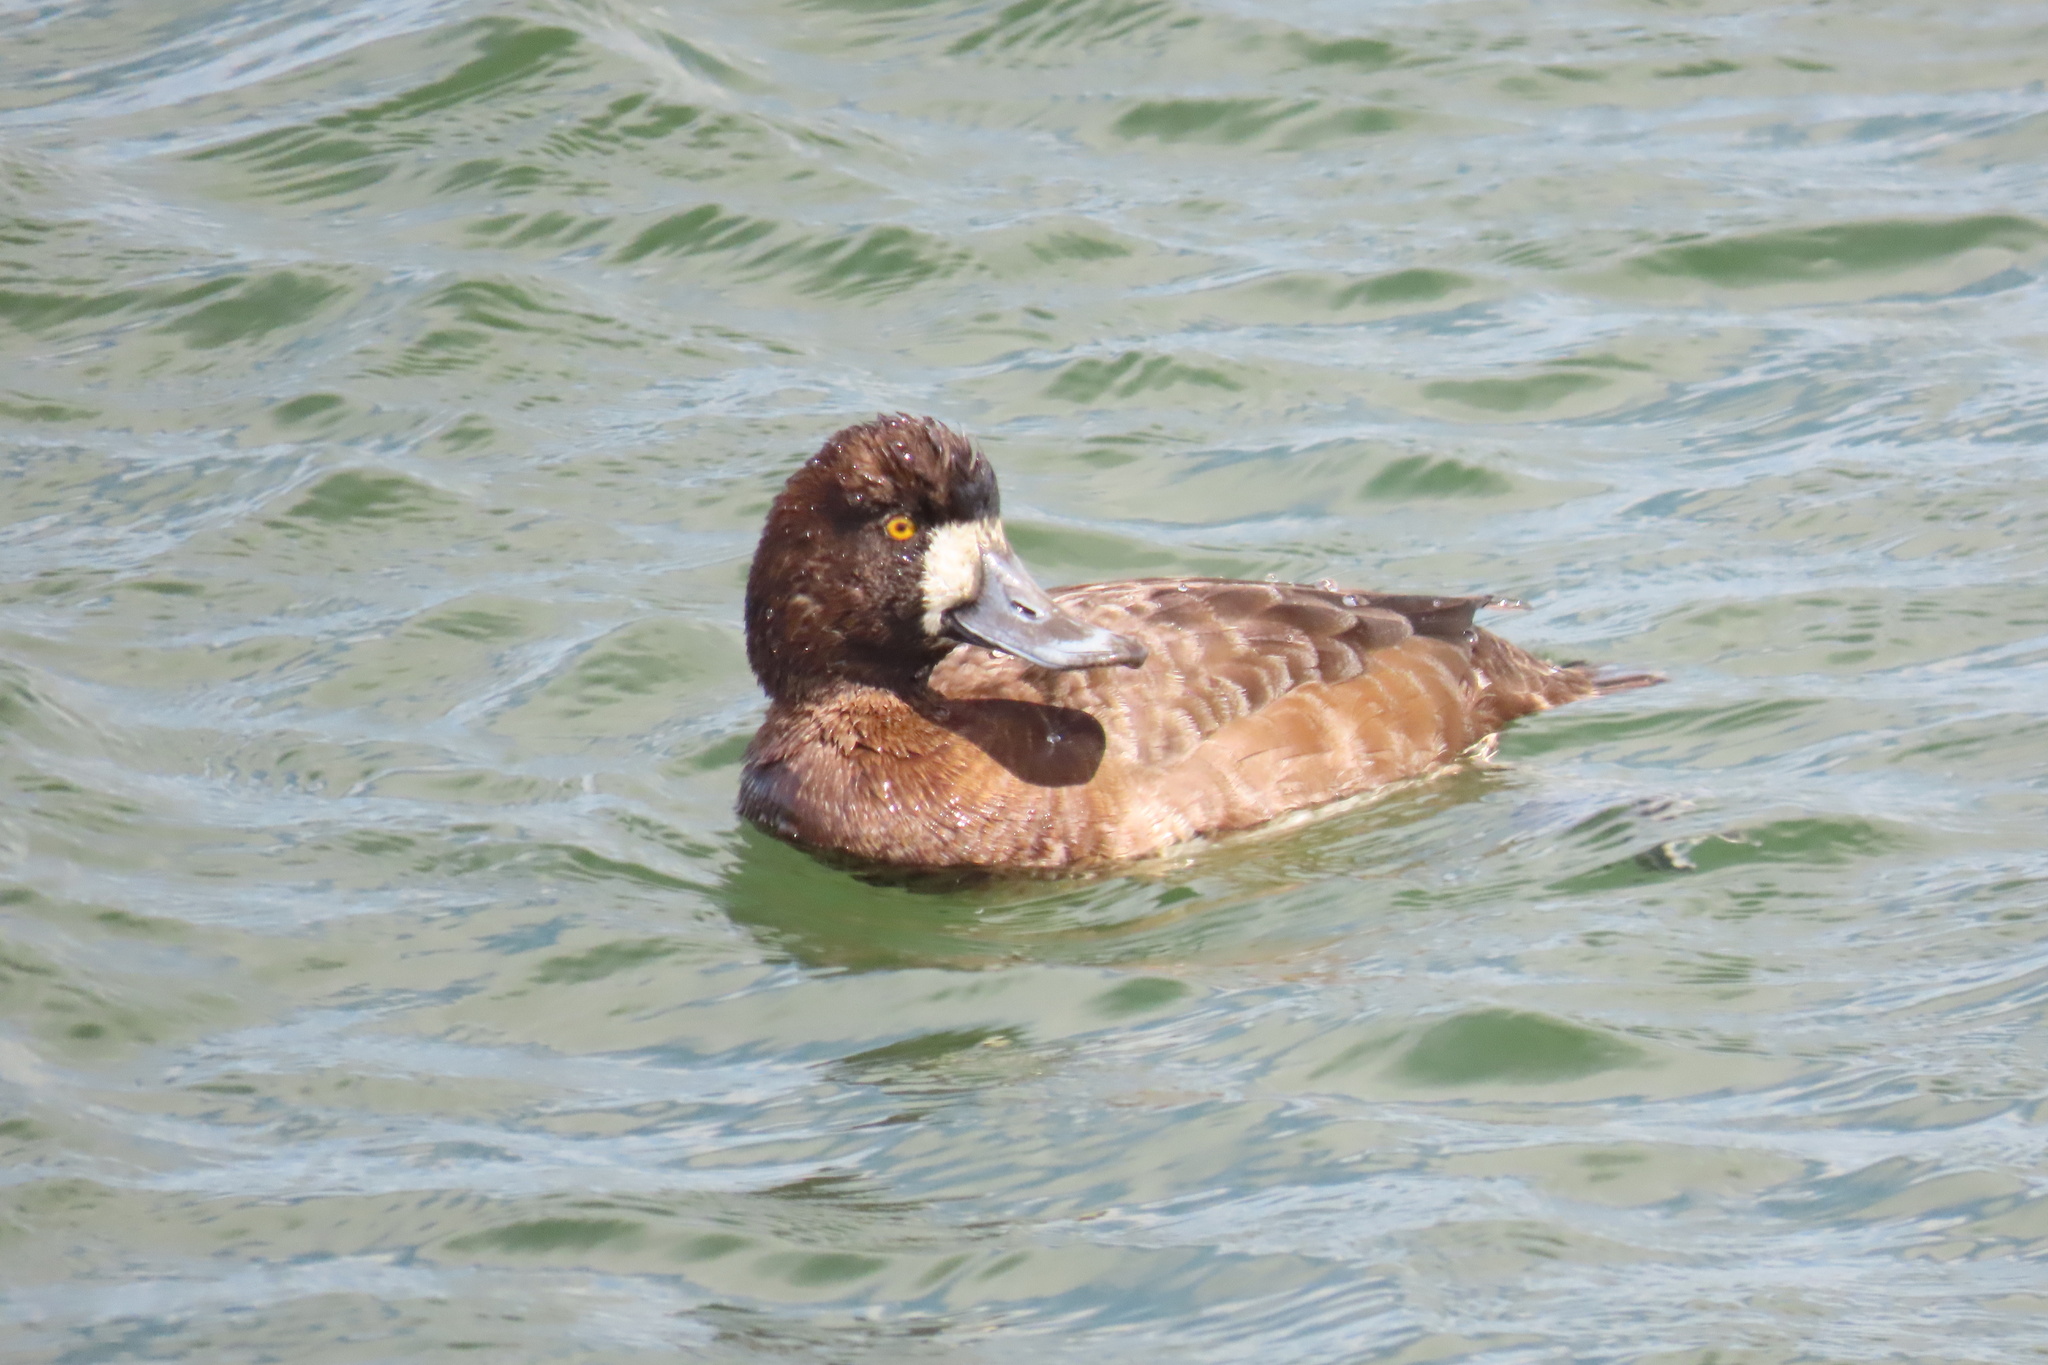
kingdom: Animalia
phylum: Chordata
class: Aves
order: Anseriformes
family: Anatidae
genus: Aythya
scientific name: Aythya marila
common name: Greater scaup
